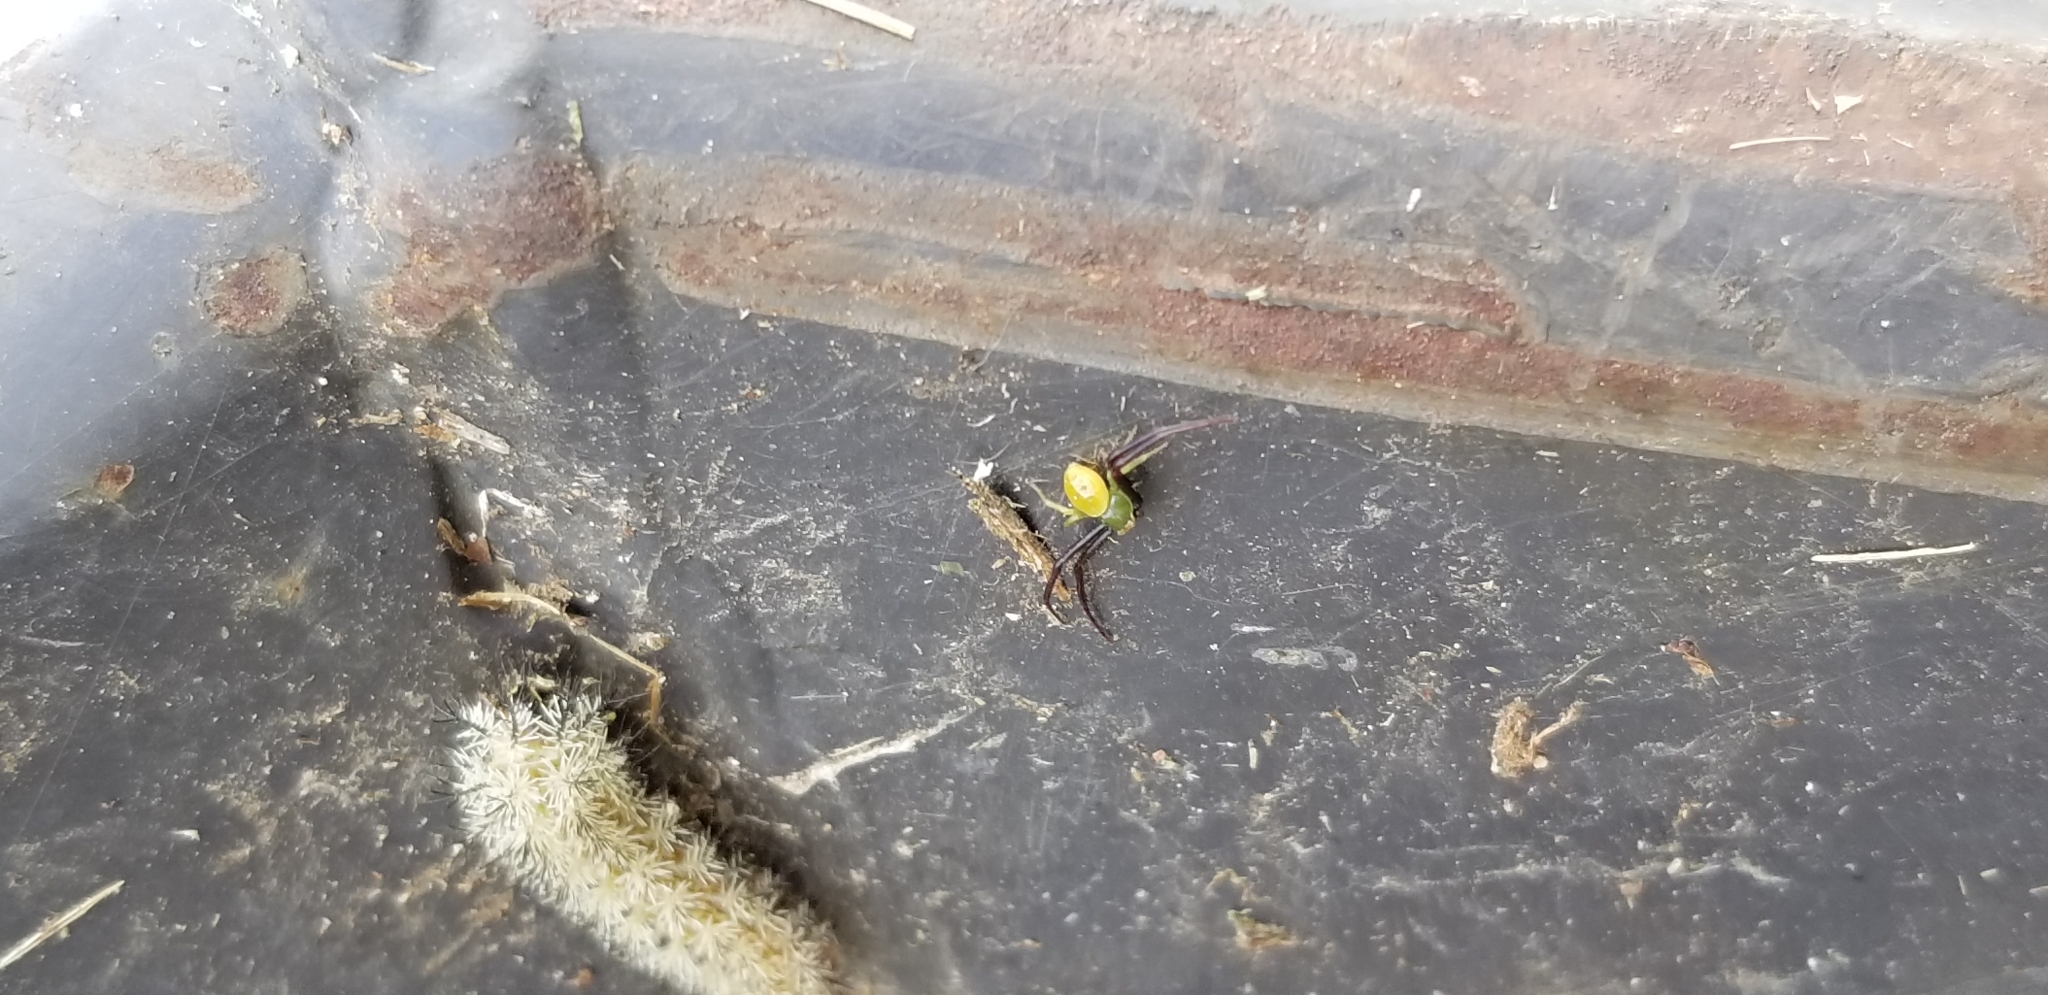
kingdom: Animalia
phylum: Arthropoda
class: Arachnida
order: Araneae
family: Thomisidae
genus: Misumenoides
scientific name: Misumenoides formosipes
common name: White-banded crab spider
